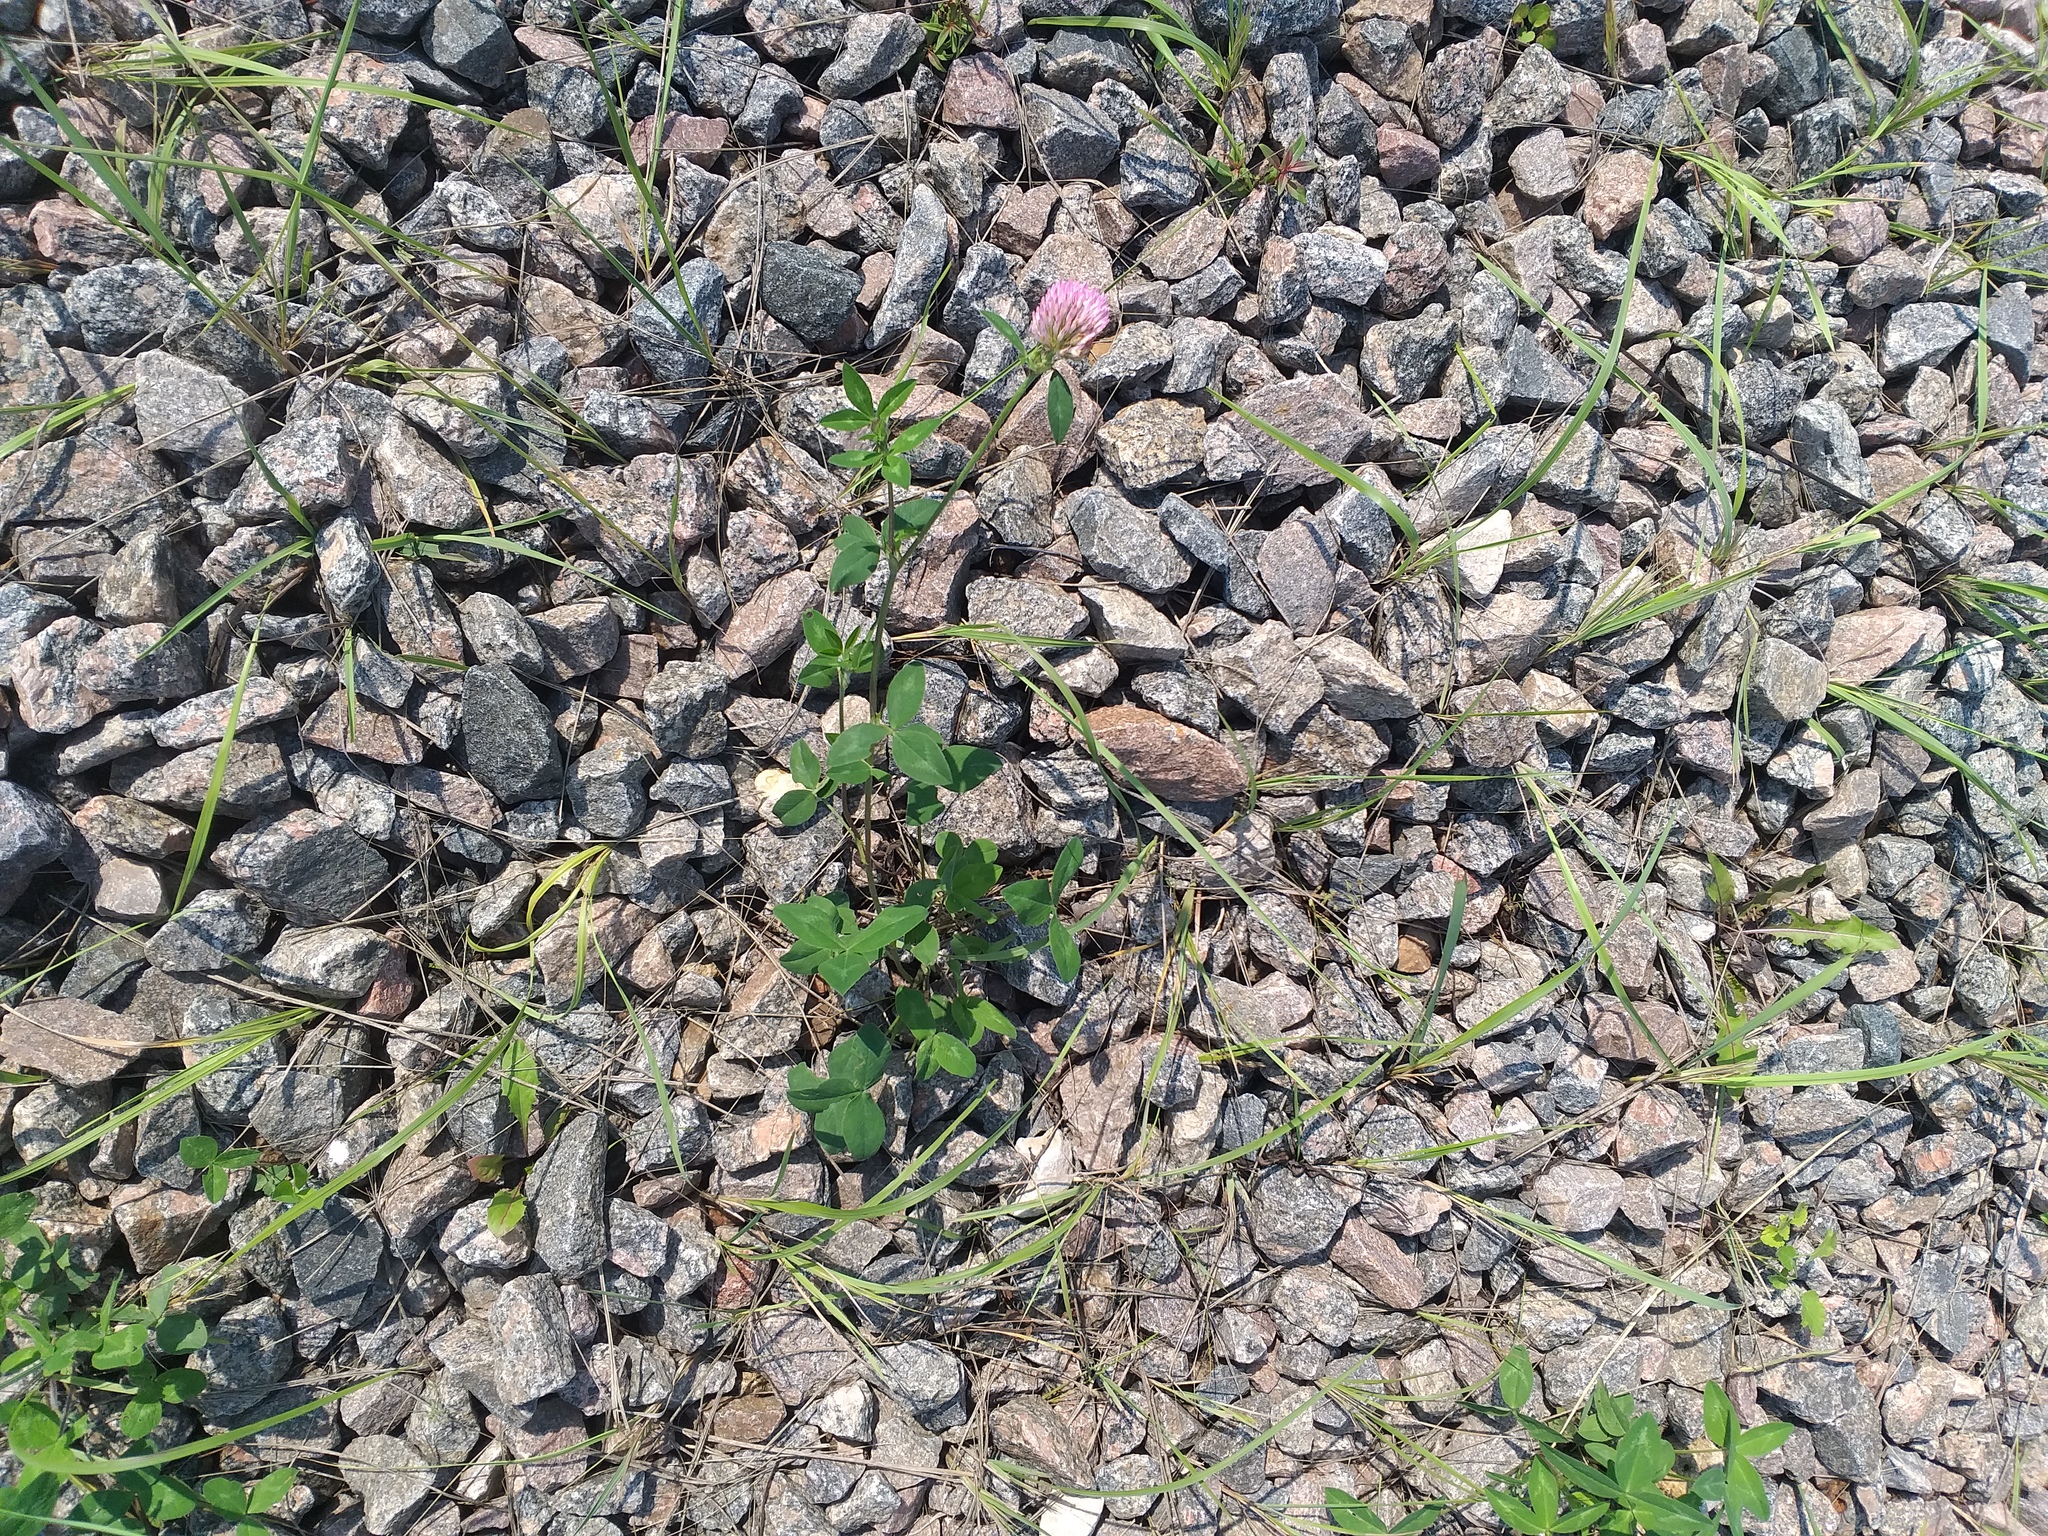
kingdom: Plantae
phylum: Tracheophyta
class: Magnoliopsida
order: Fabales
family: Fabaceae
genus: Trifolium
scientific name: Trifolium pratense
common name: Red clover
